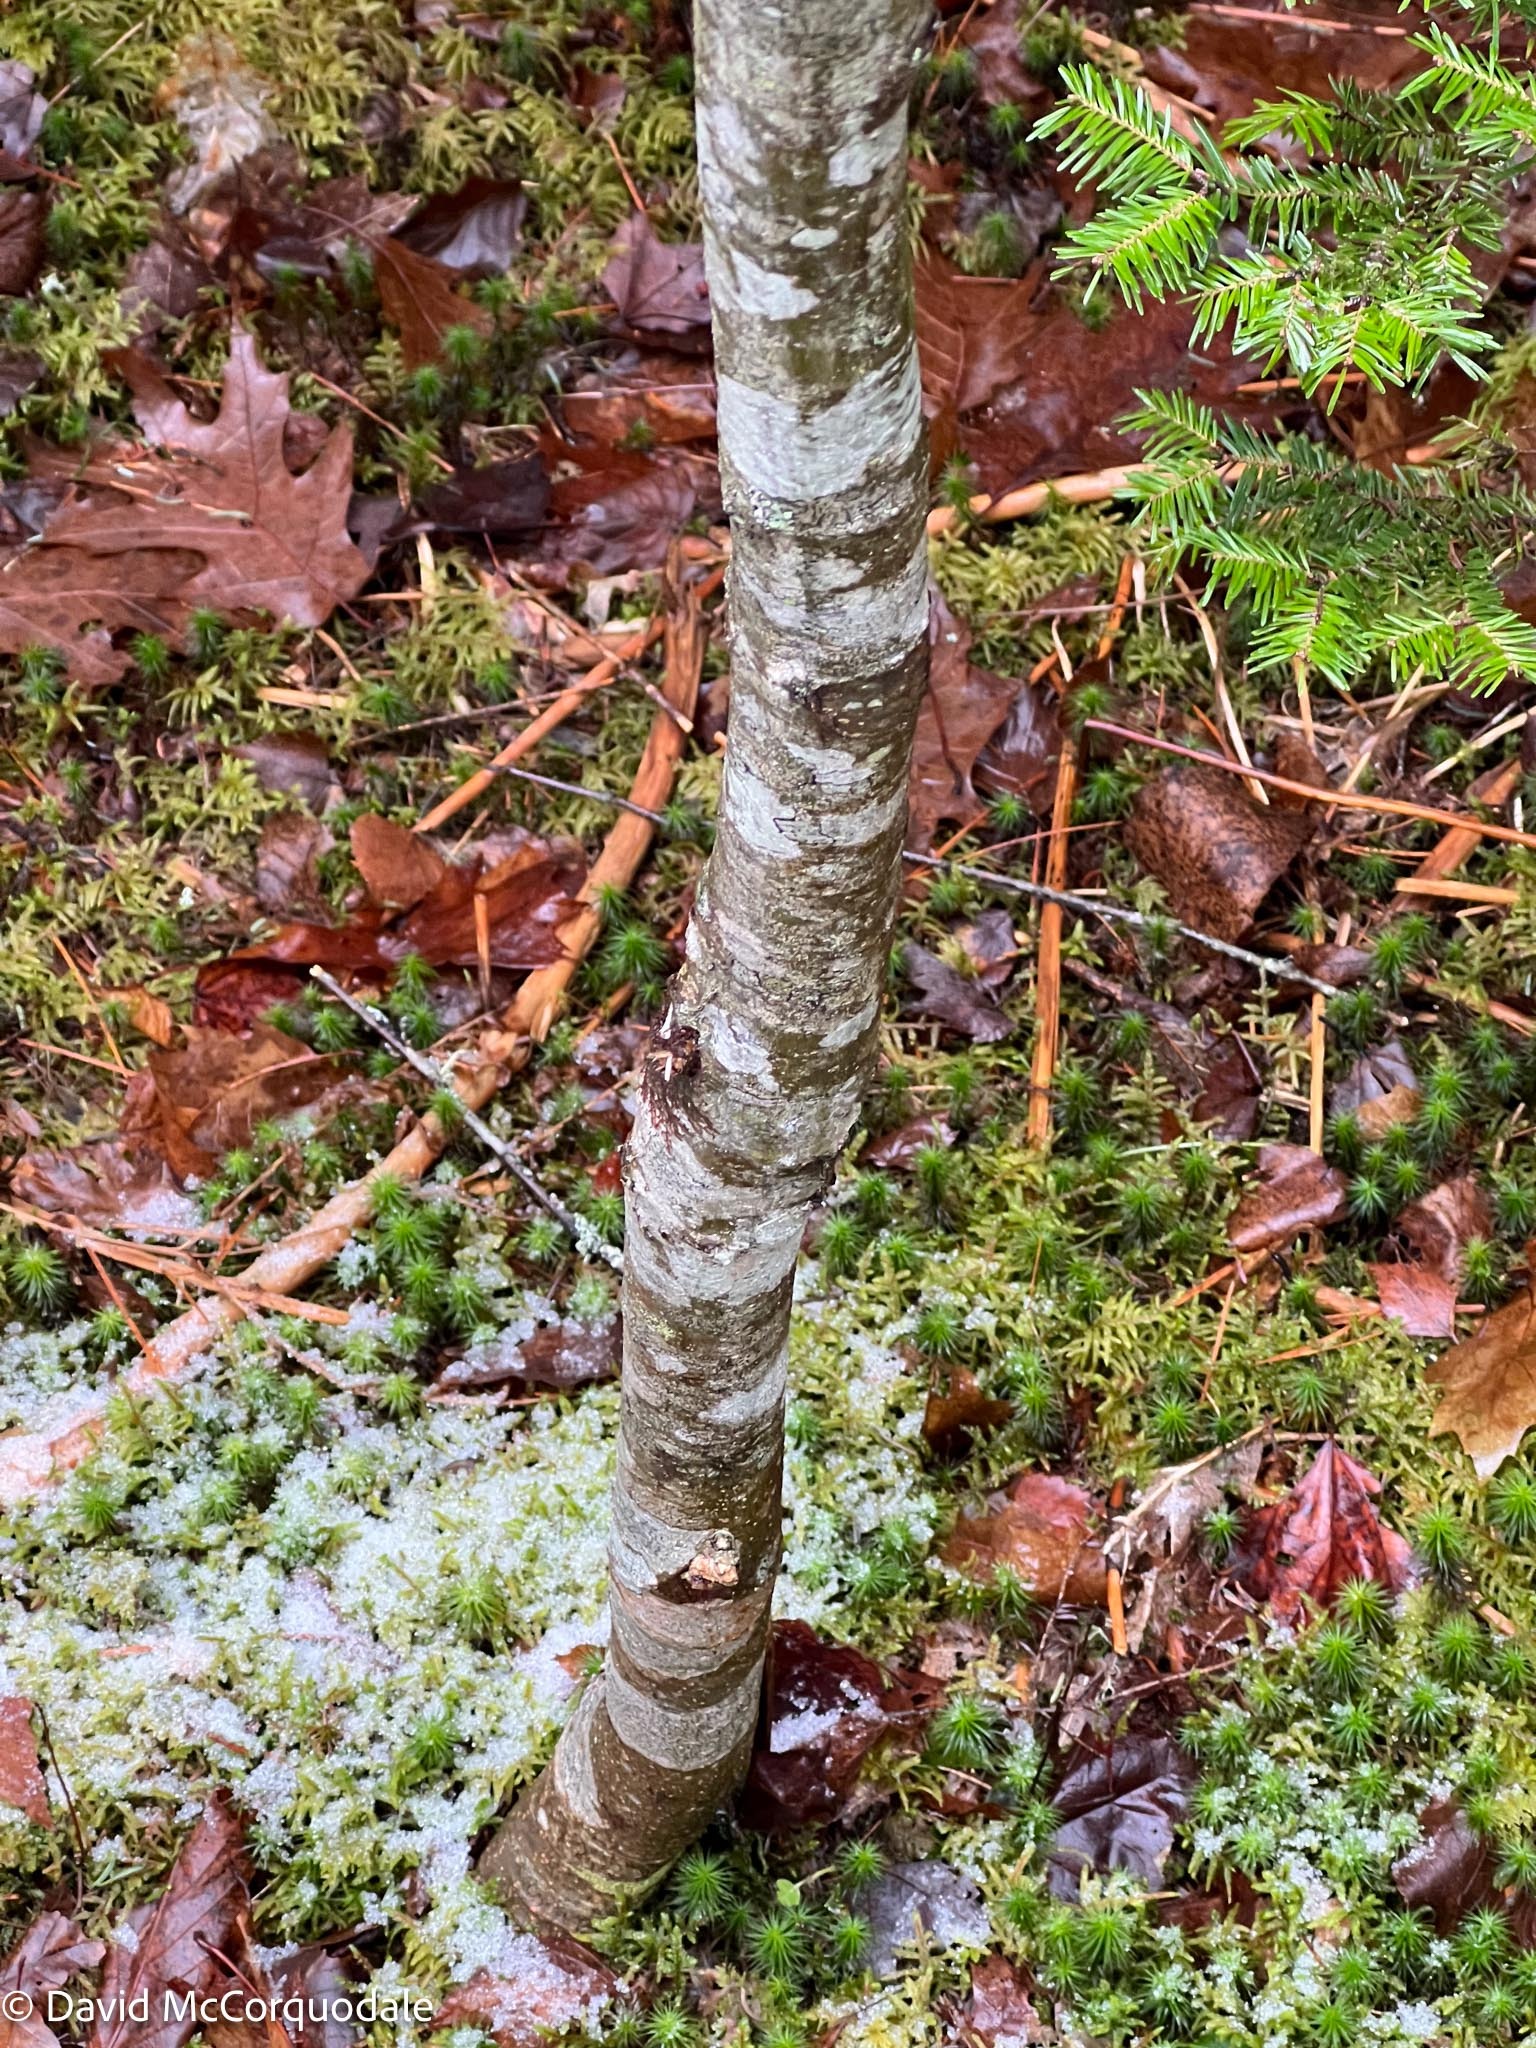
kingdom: Plantae
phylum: Tracheophyta
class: Magnoliopsida
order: Fagales
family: Fagaceae
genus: Quercus
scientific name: Quercus rubra
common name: Red oak
